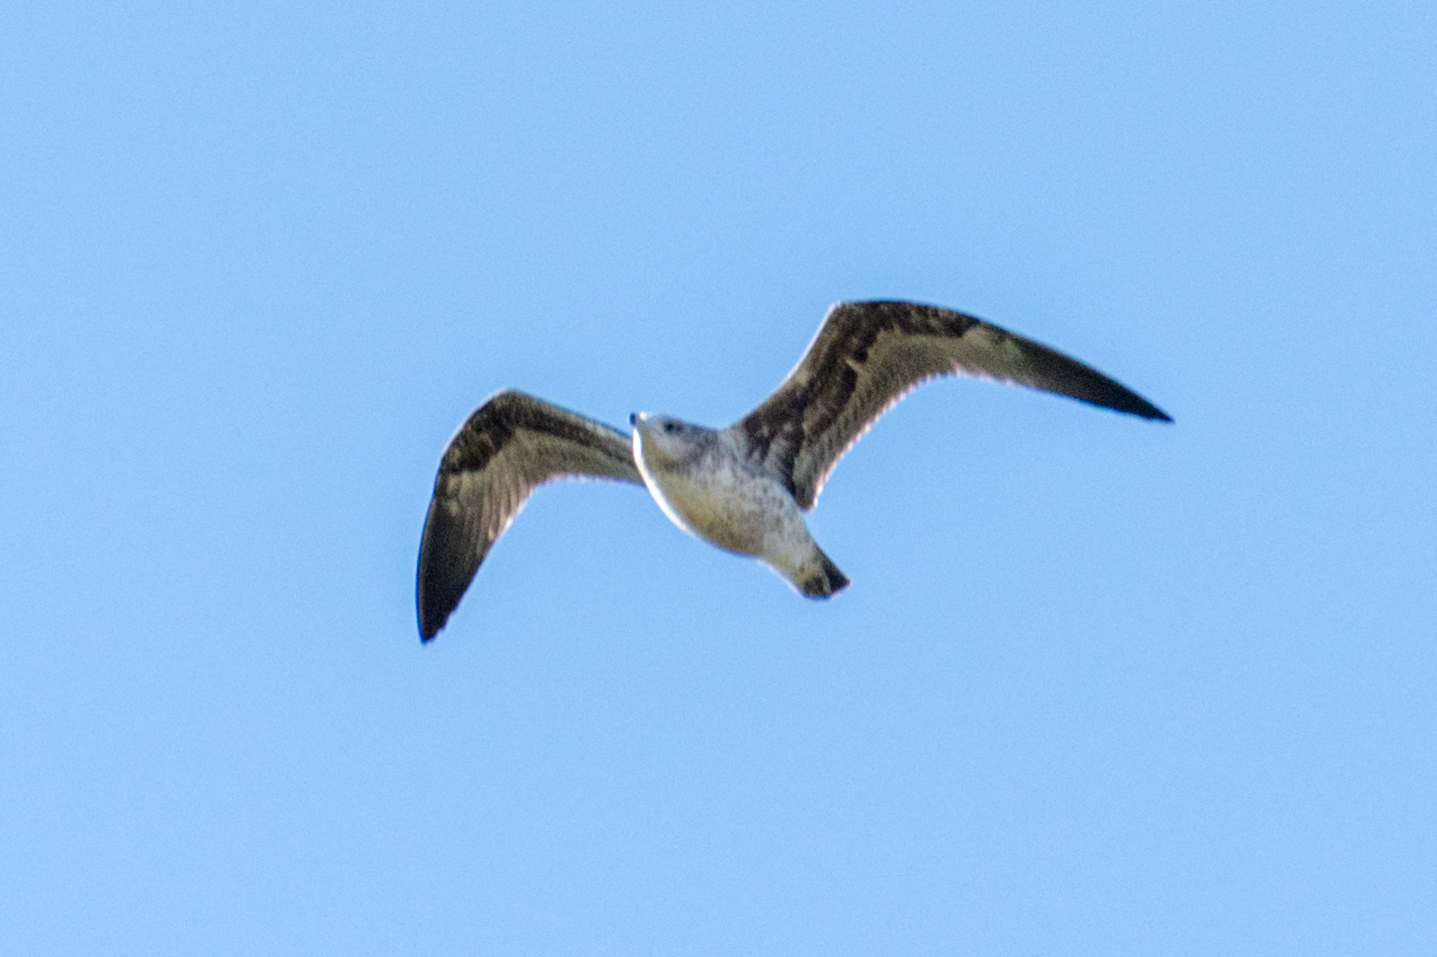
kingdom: Animalia
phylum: Chordata
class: Aves
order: Charadriiformes
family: Laridae
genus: Larus
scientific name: Larus californicus
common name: California gull
